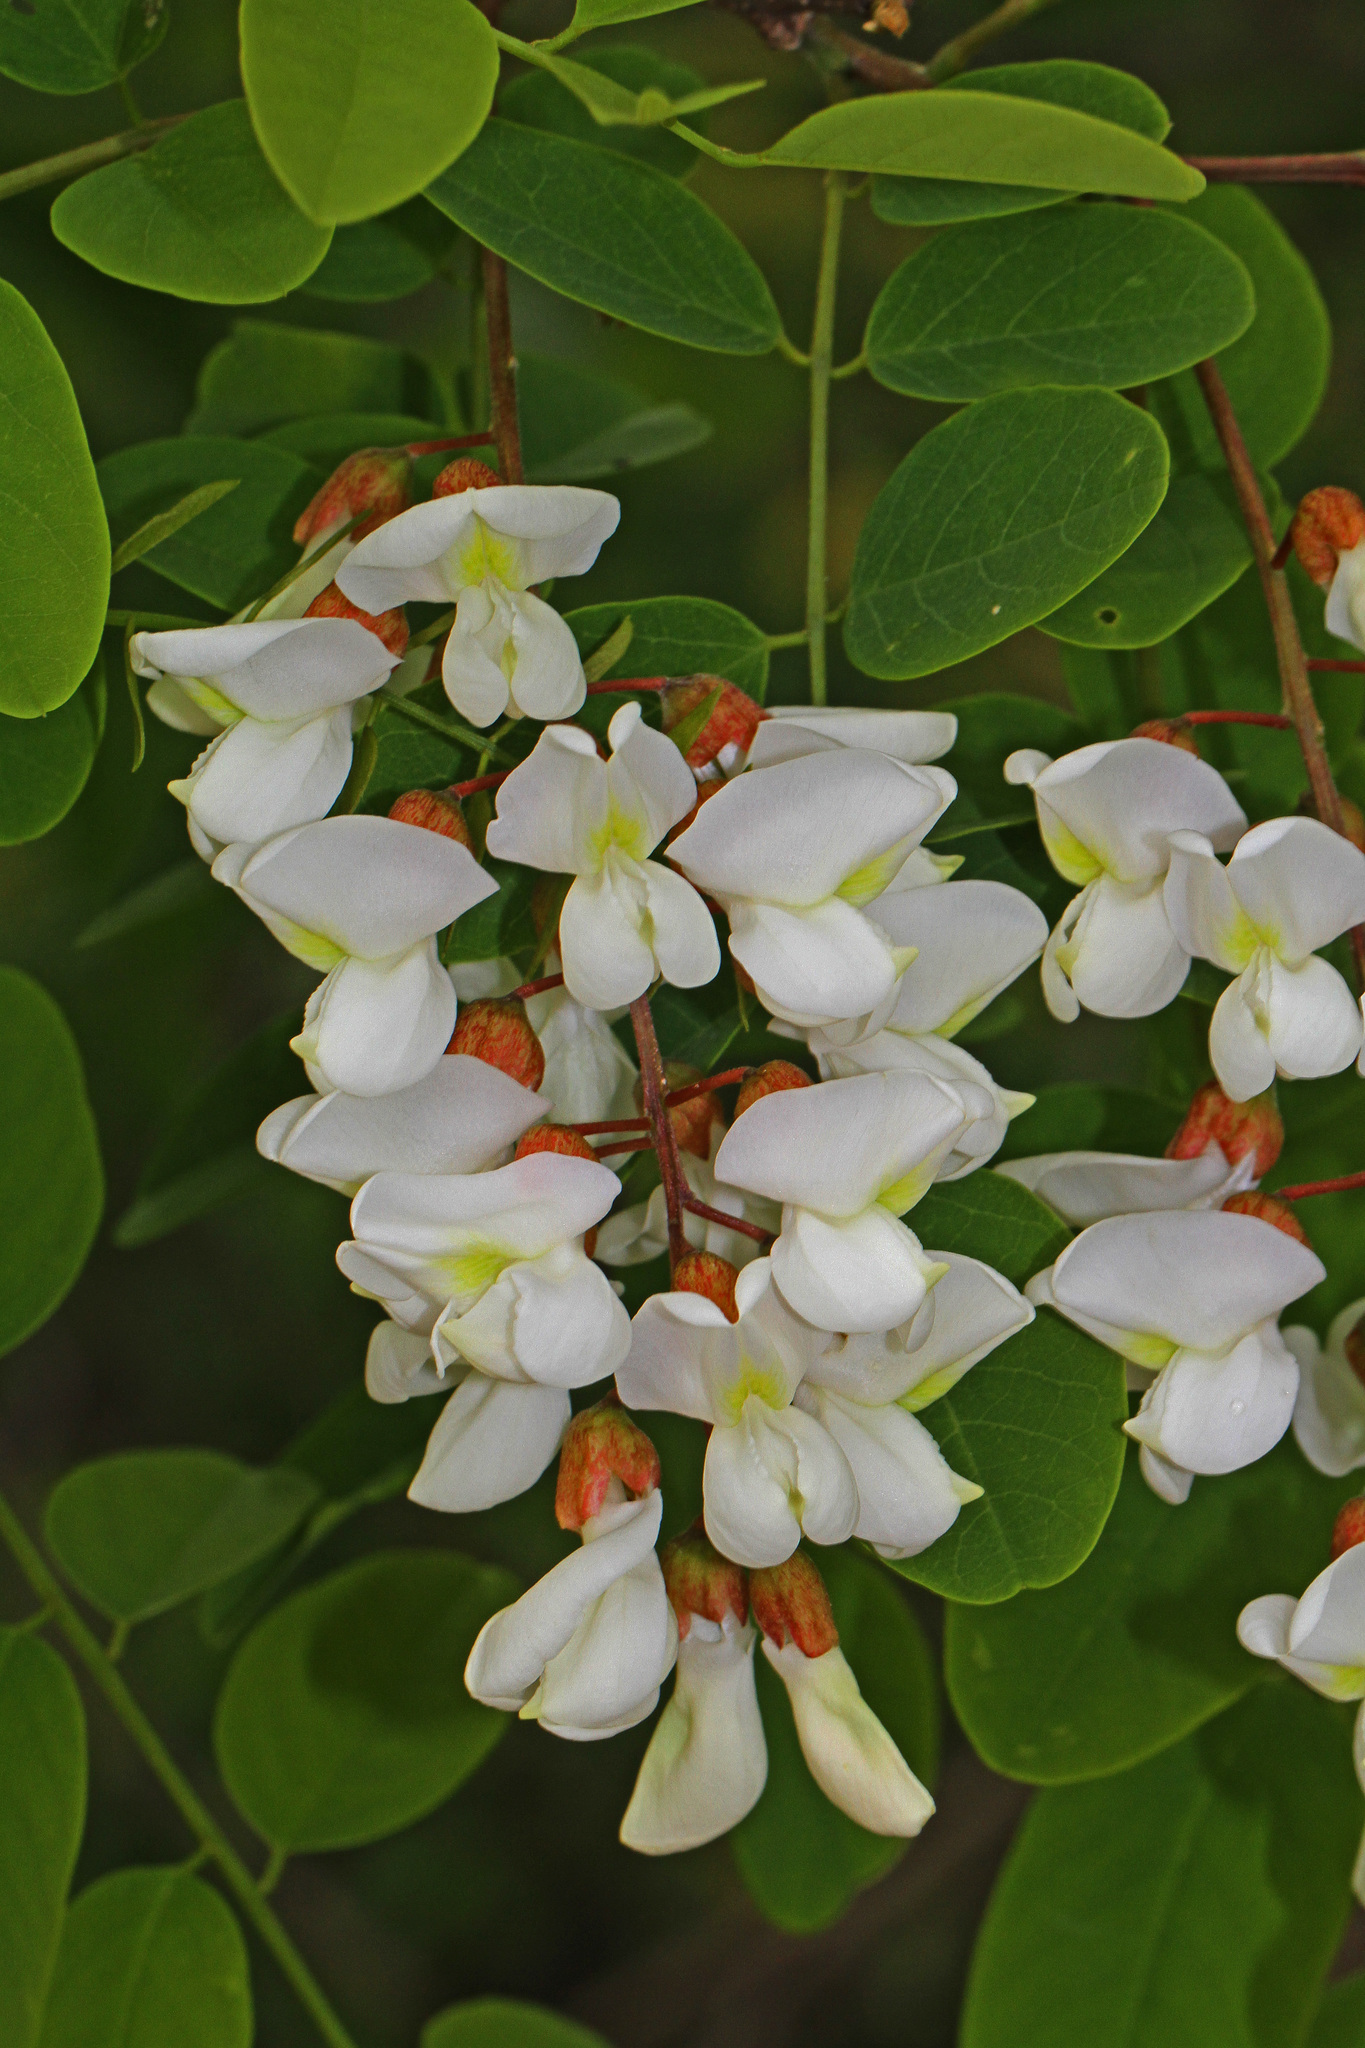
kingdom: Plantae
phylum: Tracheophyta
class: Magnoliopsida
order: Fabales
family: Fabaceae
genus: Robinia
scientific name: Robinia pseudoacacia
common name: Black locust
